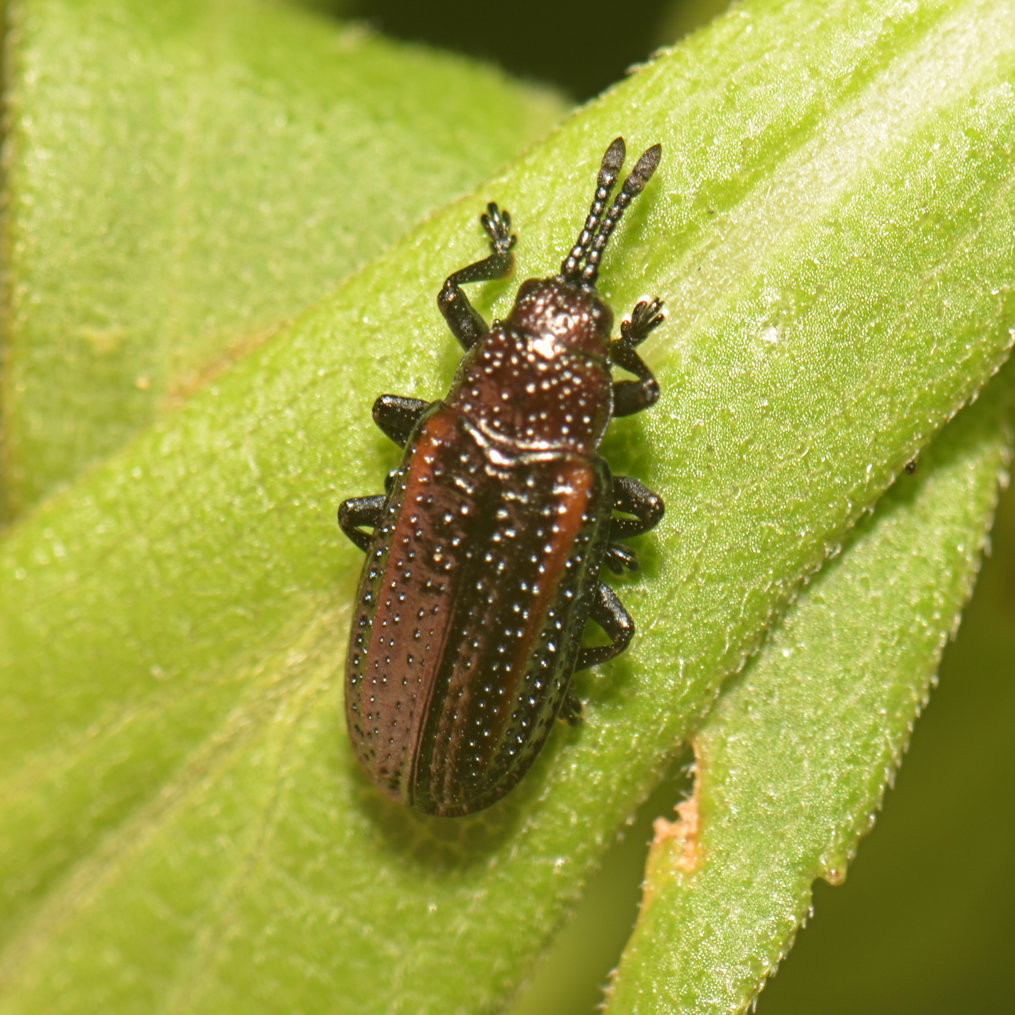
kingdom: Animalia
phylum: Arthropoda
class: Insecta
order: Coleoptera
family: Chrysomelidae
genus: Microrhopala
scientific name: Microrhopala vittata
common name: Goldenrod leaf miner beetle
